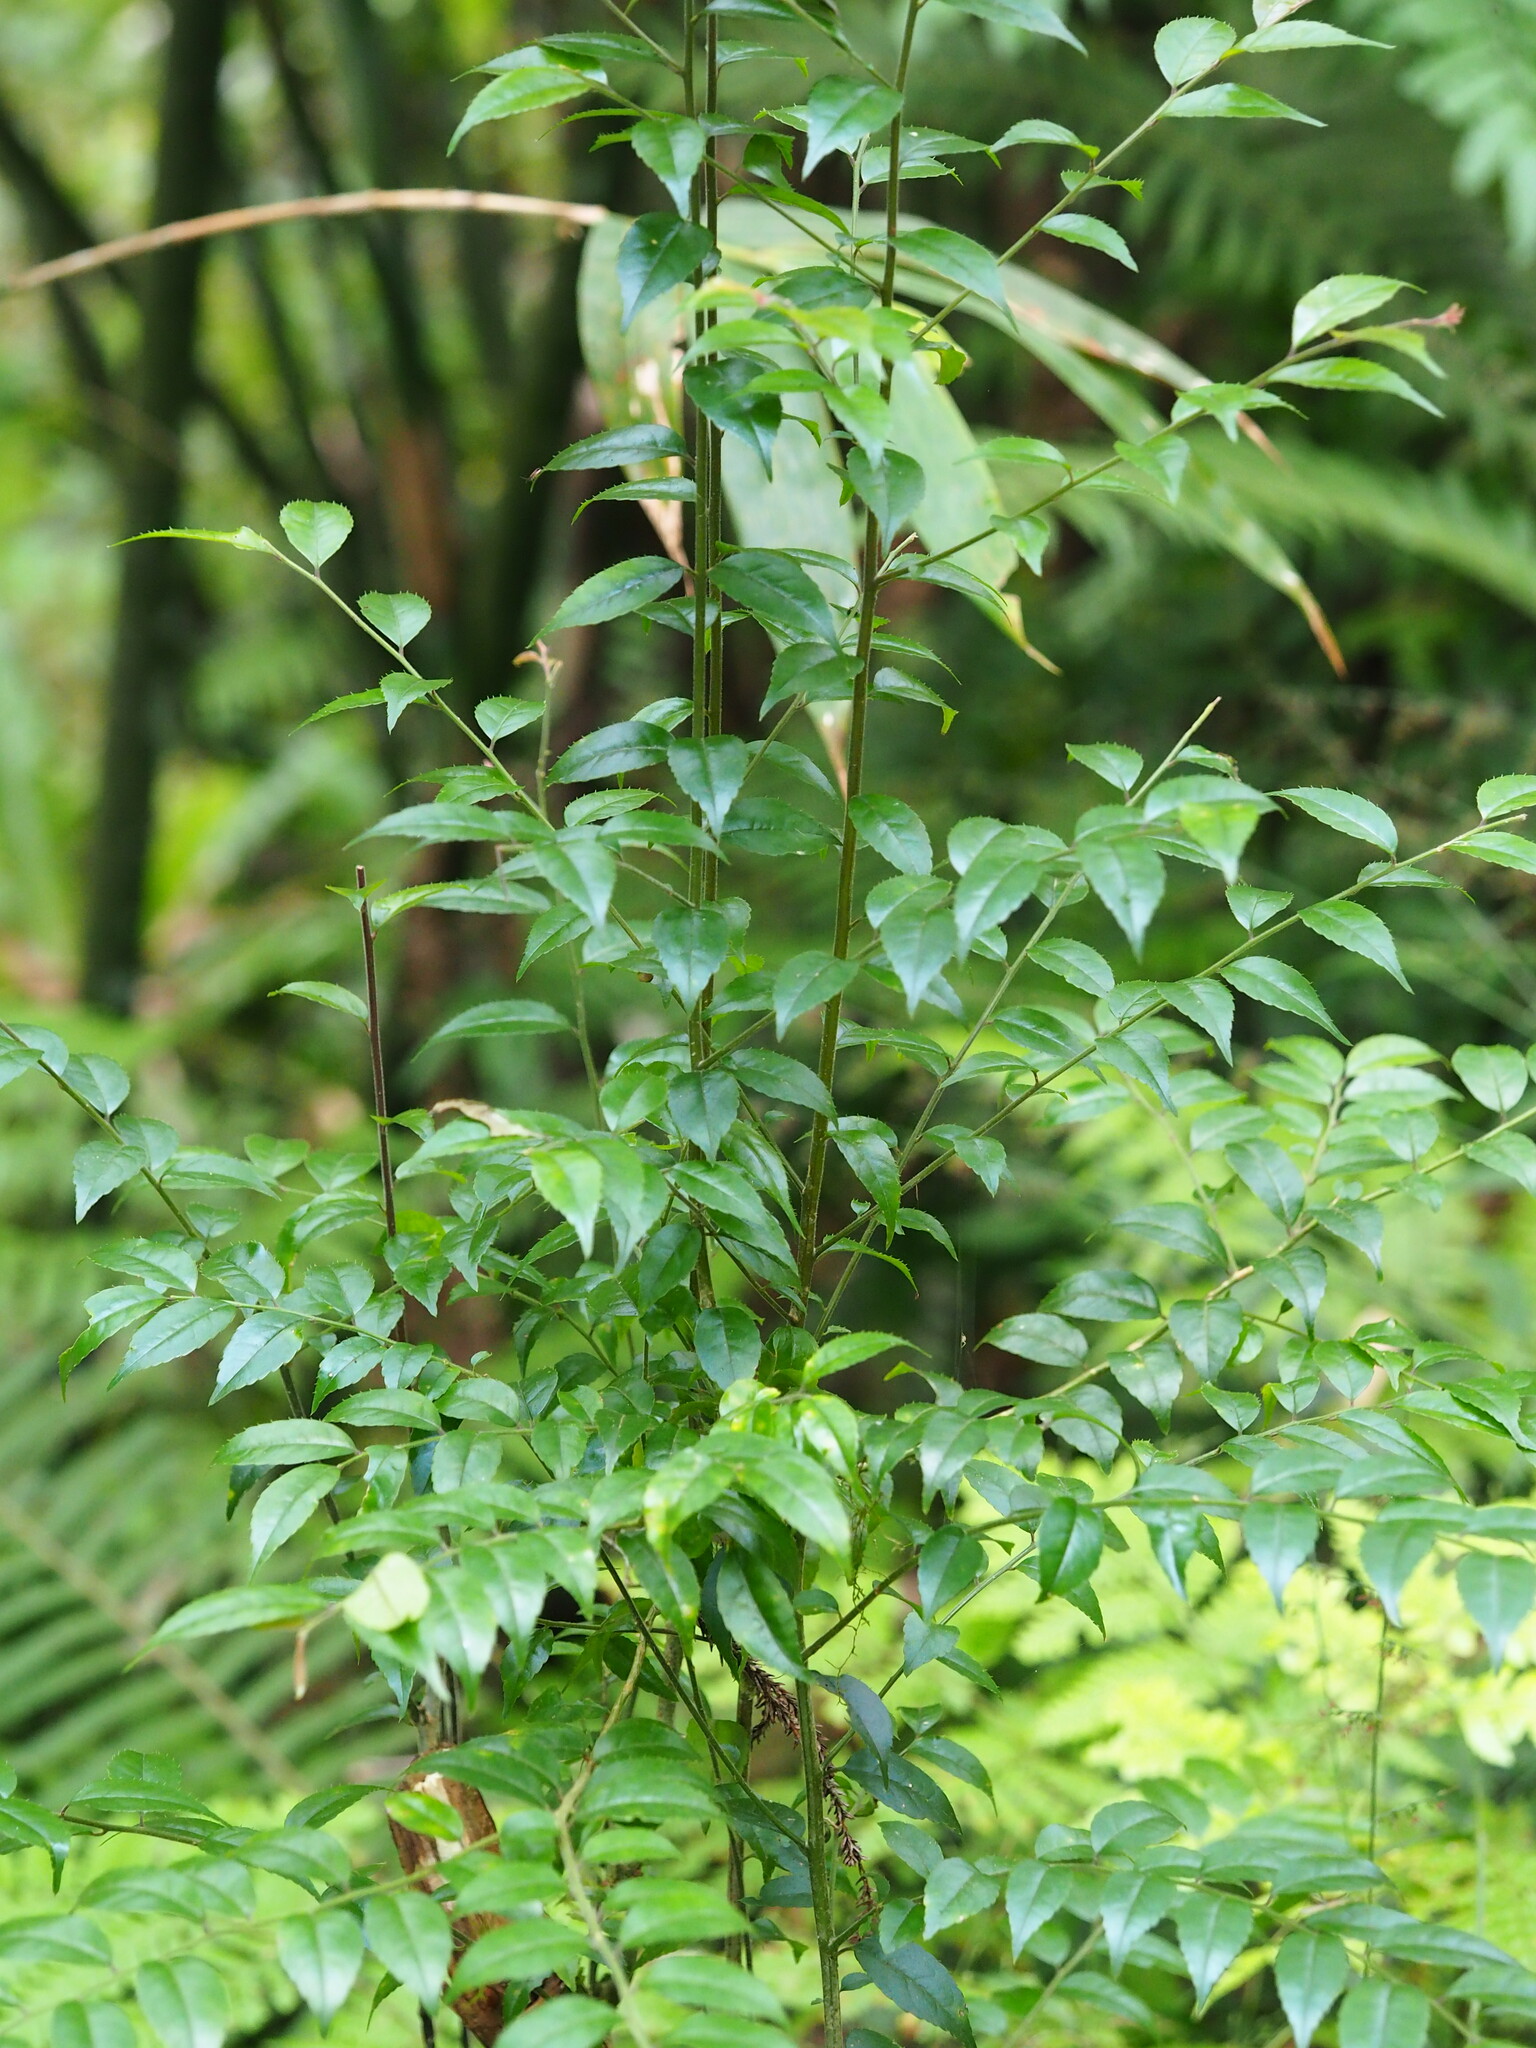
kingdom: Plantae
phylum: Tracheophyta
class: Magnoliopsida
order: Aquifoliales
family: Aquifoliaceae
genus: Ilex
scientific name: Ilex pubescens
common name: Pubescent holly
